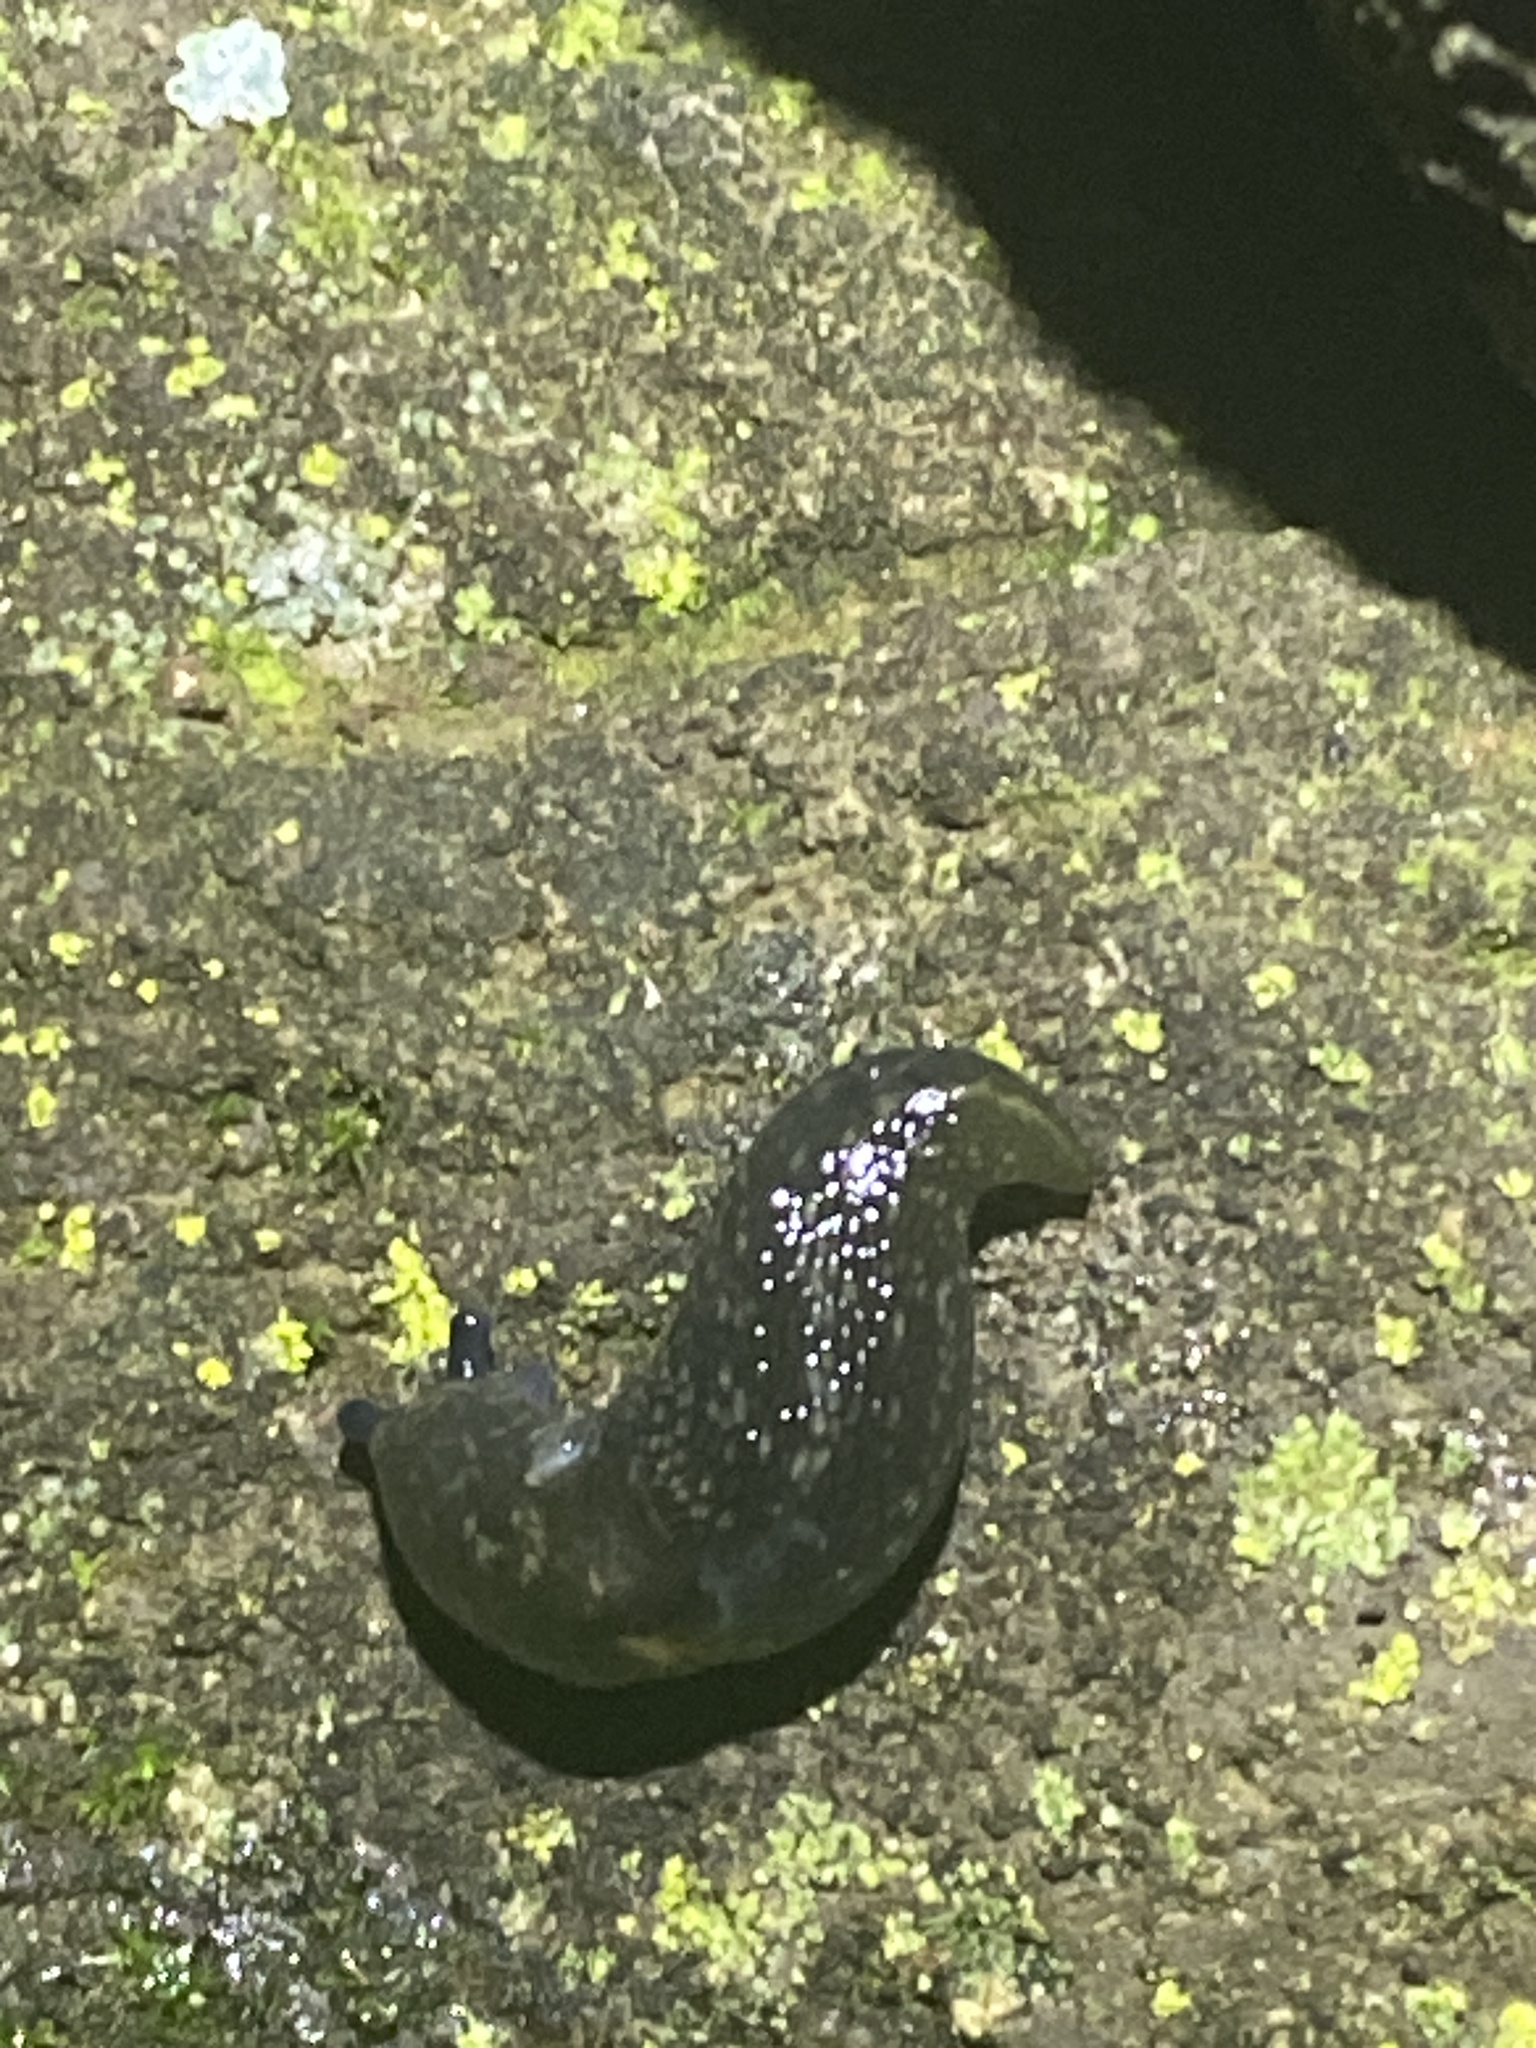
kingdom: Animalia
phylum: Mollusca
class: Gastropoda
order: Stylommatophora
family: Limacidae
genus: Limacus
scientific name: Limacus flavus
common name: Yellow gardenslug
